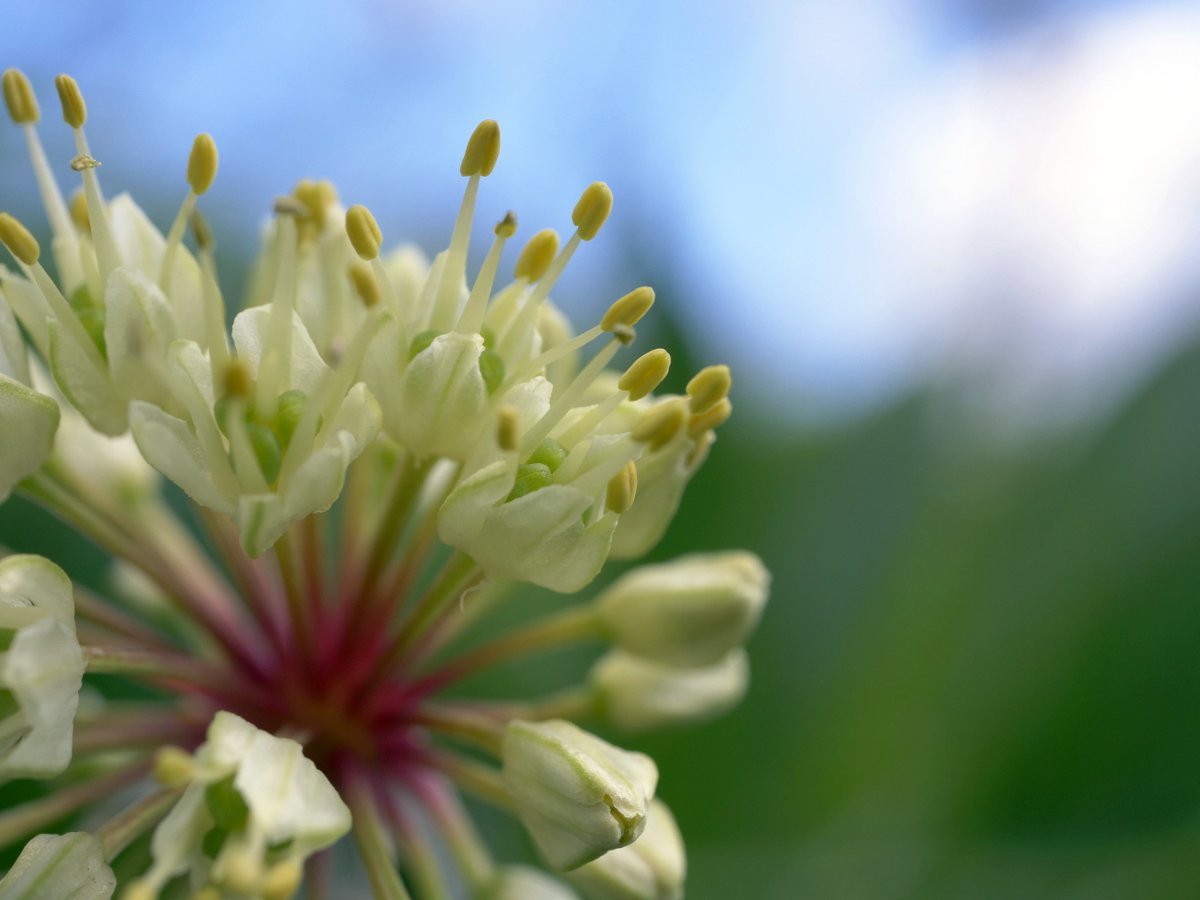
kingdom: Plantae
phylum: Tracheophyta
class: Liliopsida
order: Asparagales
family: Amaryllidaceae
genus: Allium
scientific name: Allium victorialis
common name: Alpine leek
